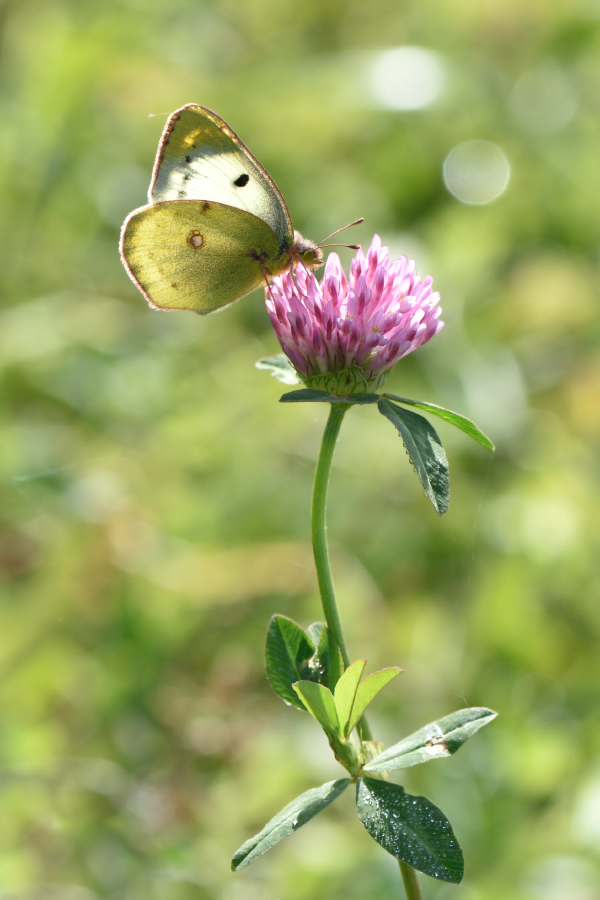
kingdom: Animalia
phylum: Arthropoda
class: Insecta
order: Lepidoptera
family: Pieridae
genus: Colias
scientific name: Colias hyale
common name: Pale clouded yellow
